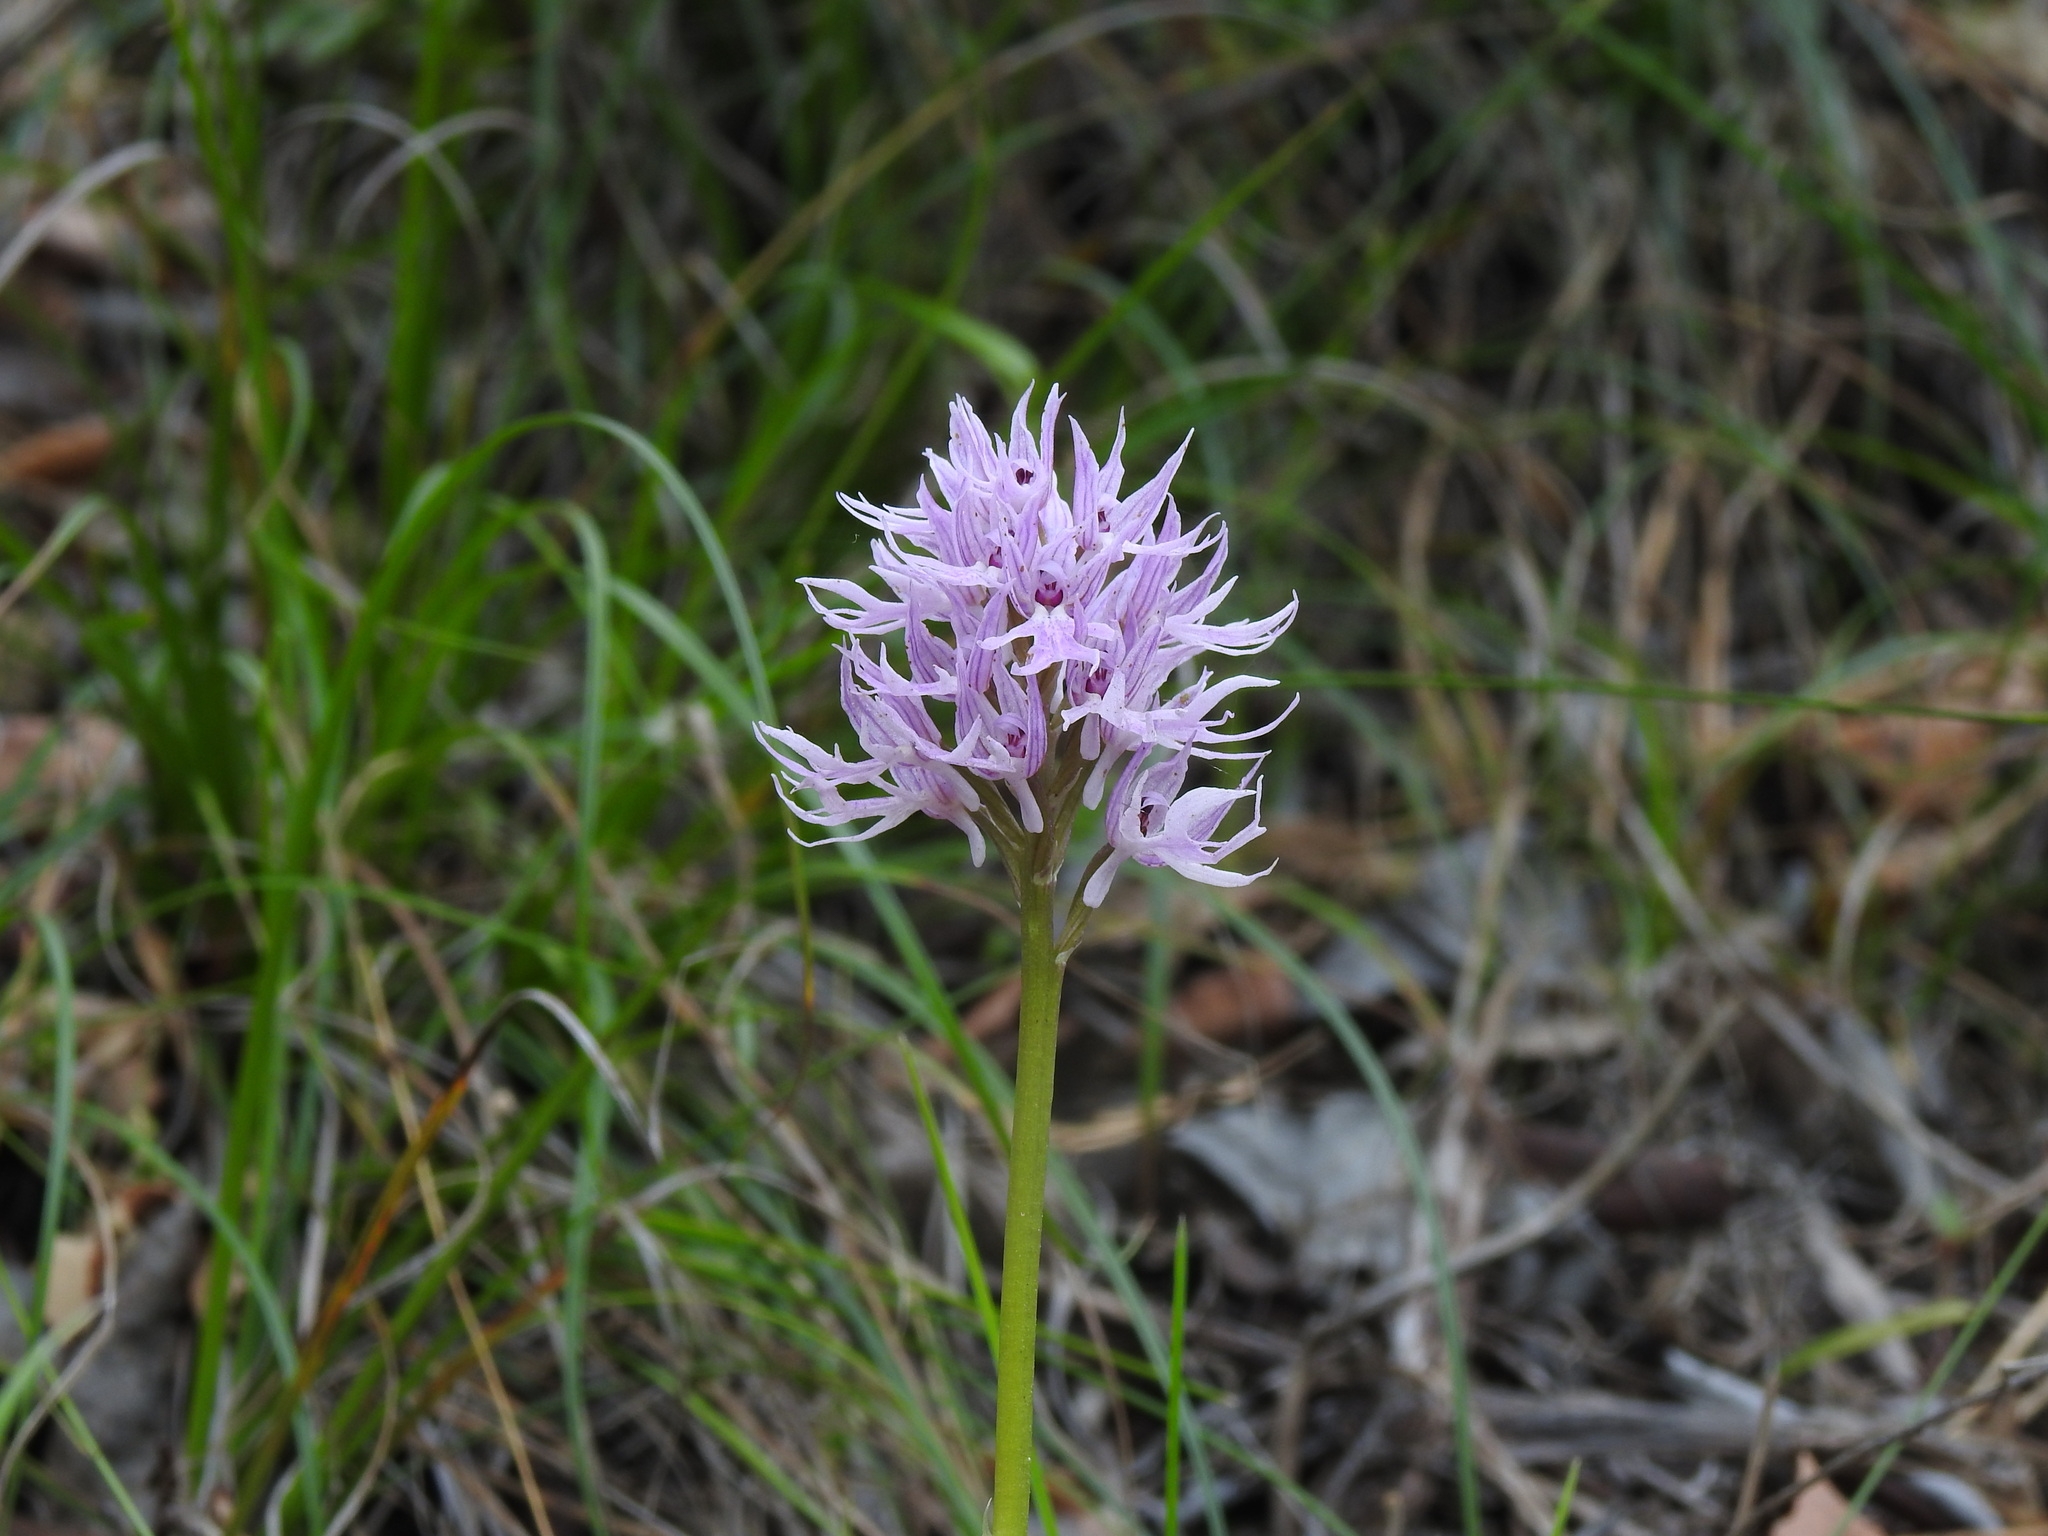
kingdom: Plantae
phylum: Tracheophyta
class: Liliopsida
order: Asparagales
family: Orchidaceae
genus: Orchis
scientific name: Orchis italica
